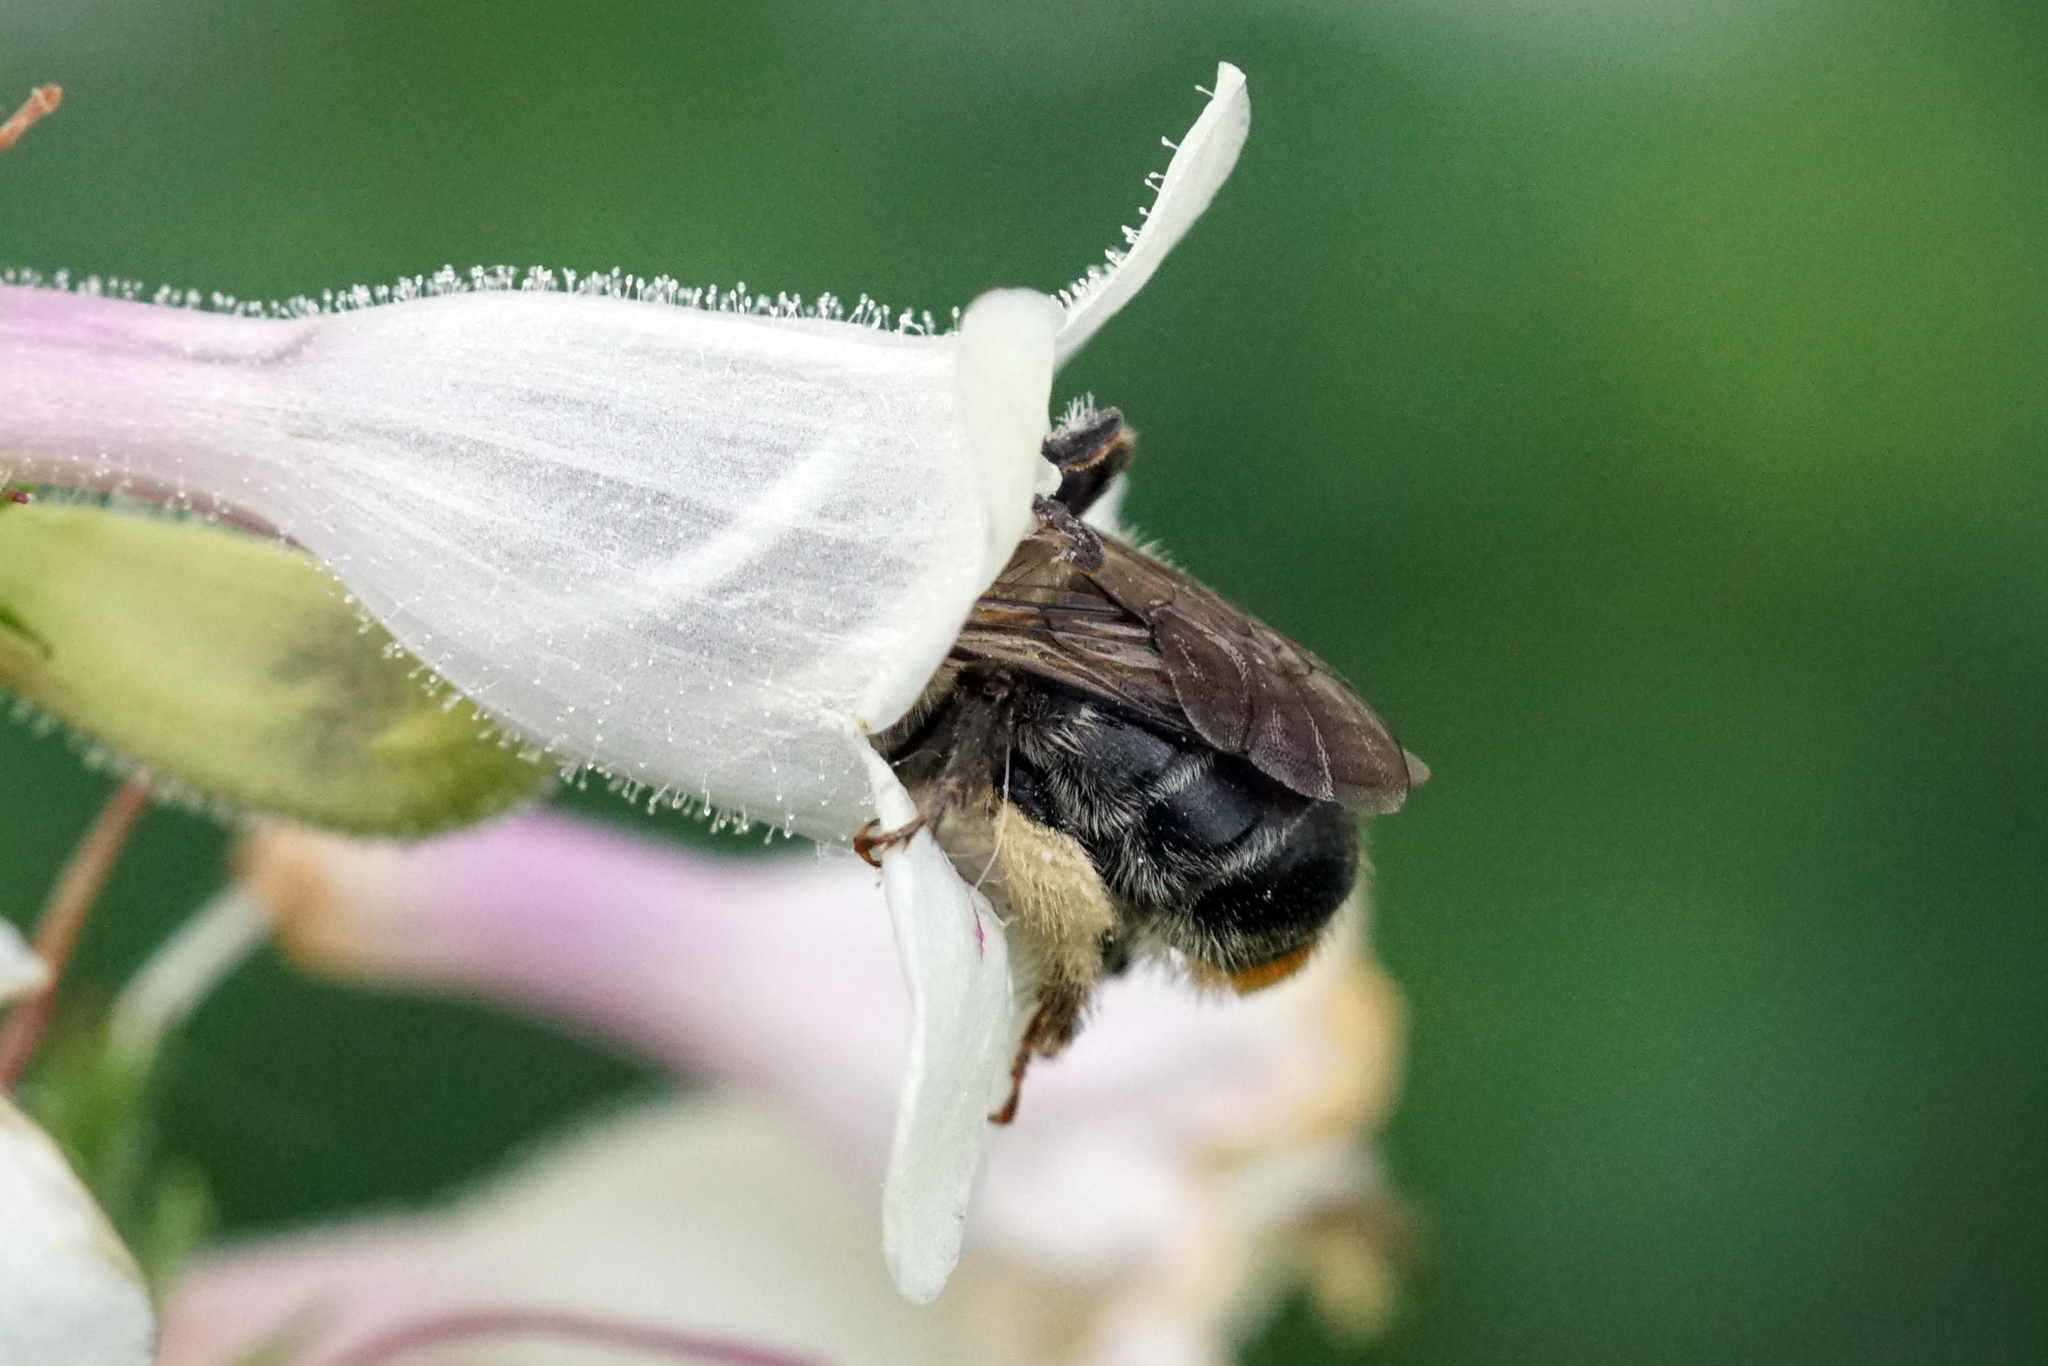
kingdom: Animalia
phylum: Arthropoda
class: Insecta
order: Hymenoptera
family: Apidae
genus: Anthophora
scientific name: Anthophora terminalis
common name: Orange-tipped wood-digger bee
